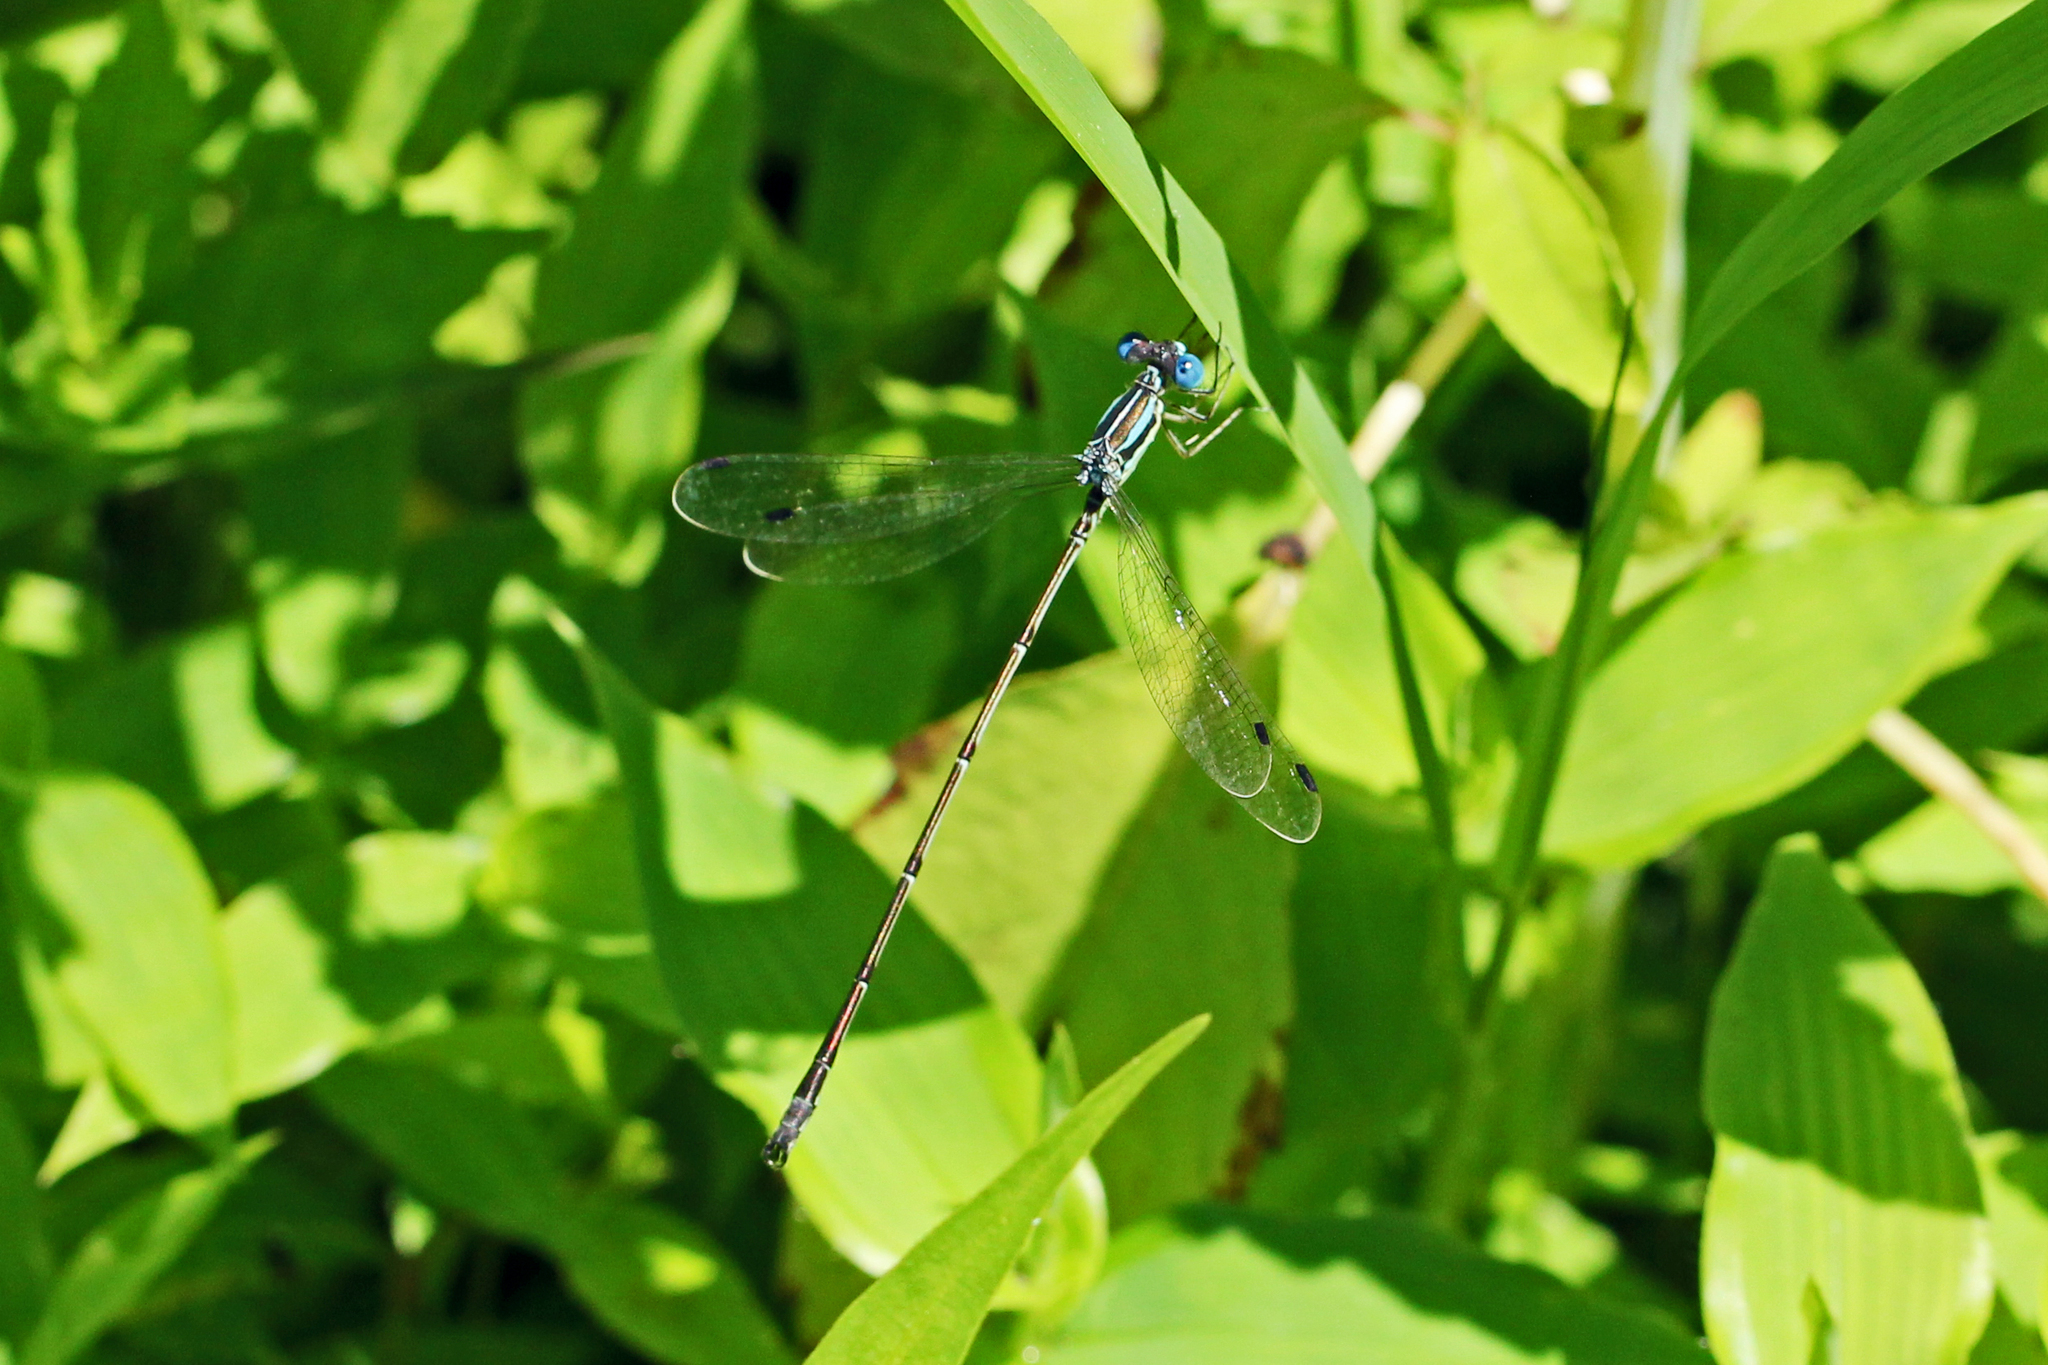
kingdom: Animalia
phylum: Arthropoda
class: Insecta
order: Odonata
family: Lestidae
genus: Lestes
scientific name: Lestes rectangularis
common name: Slender spreadwing
